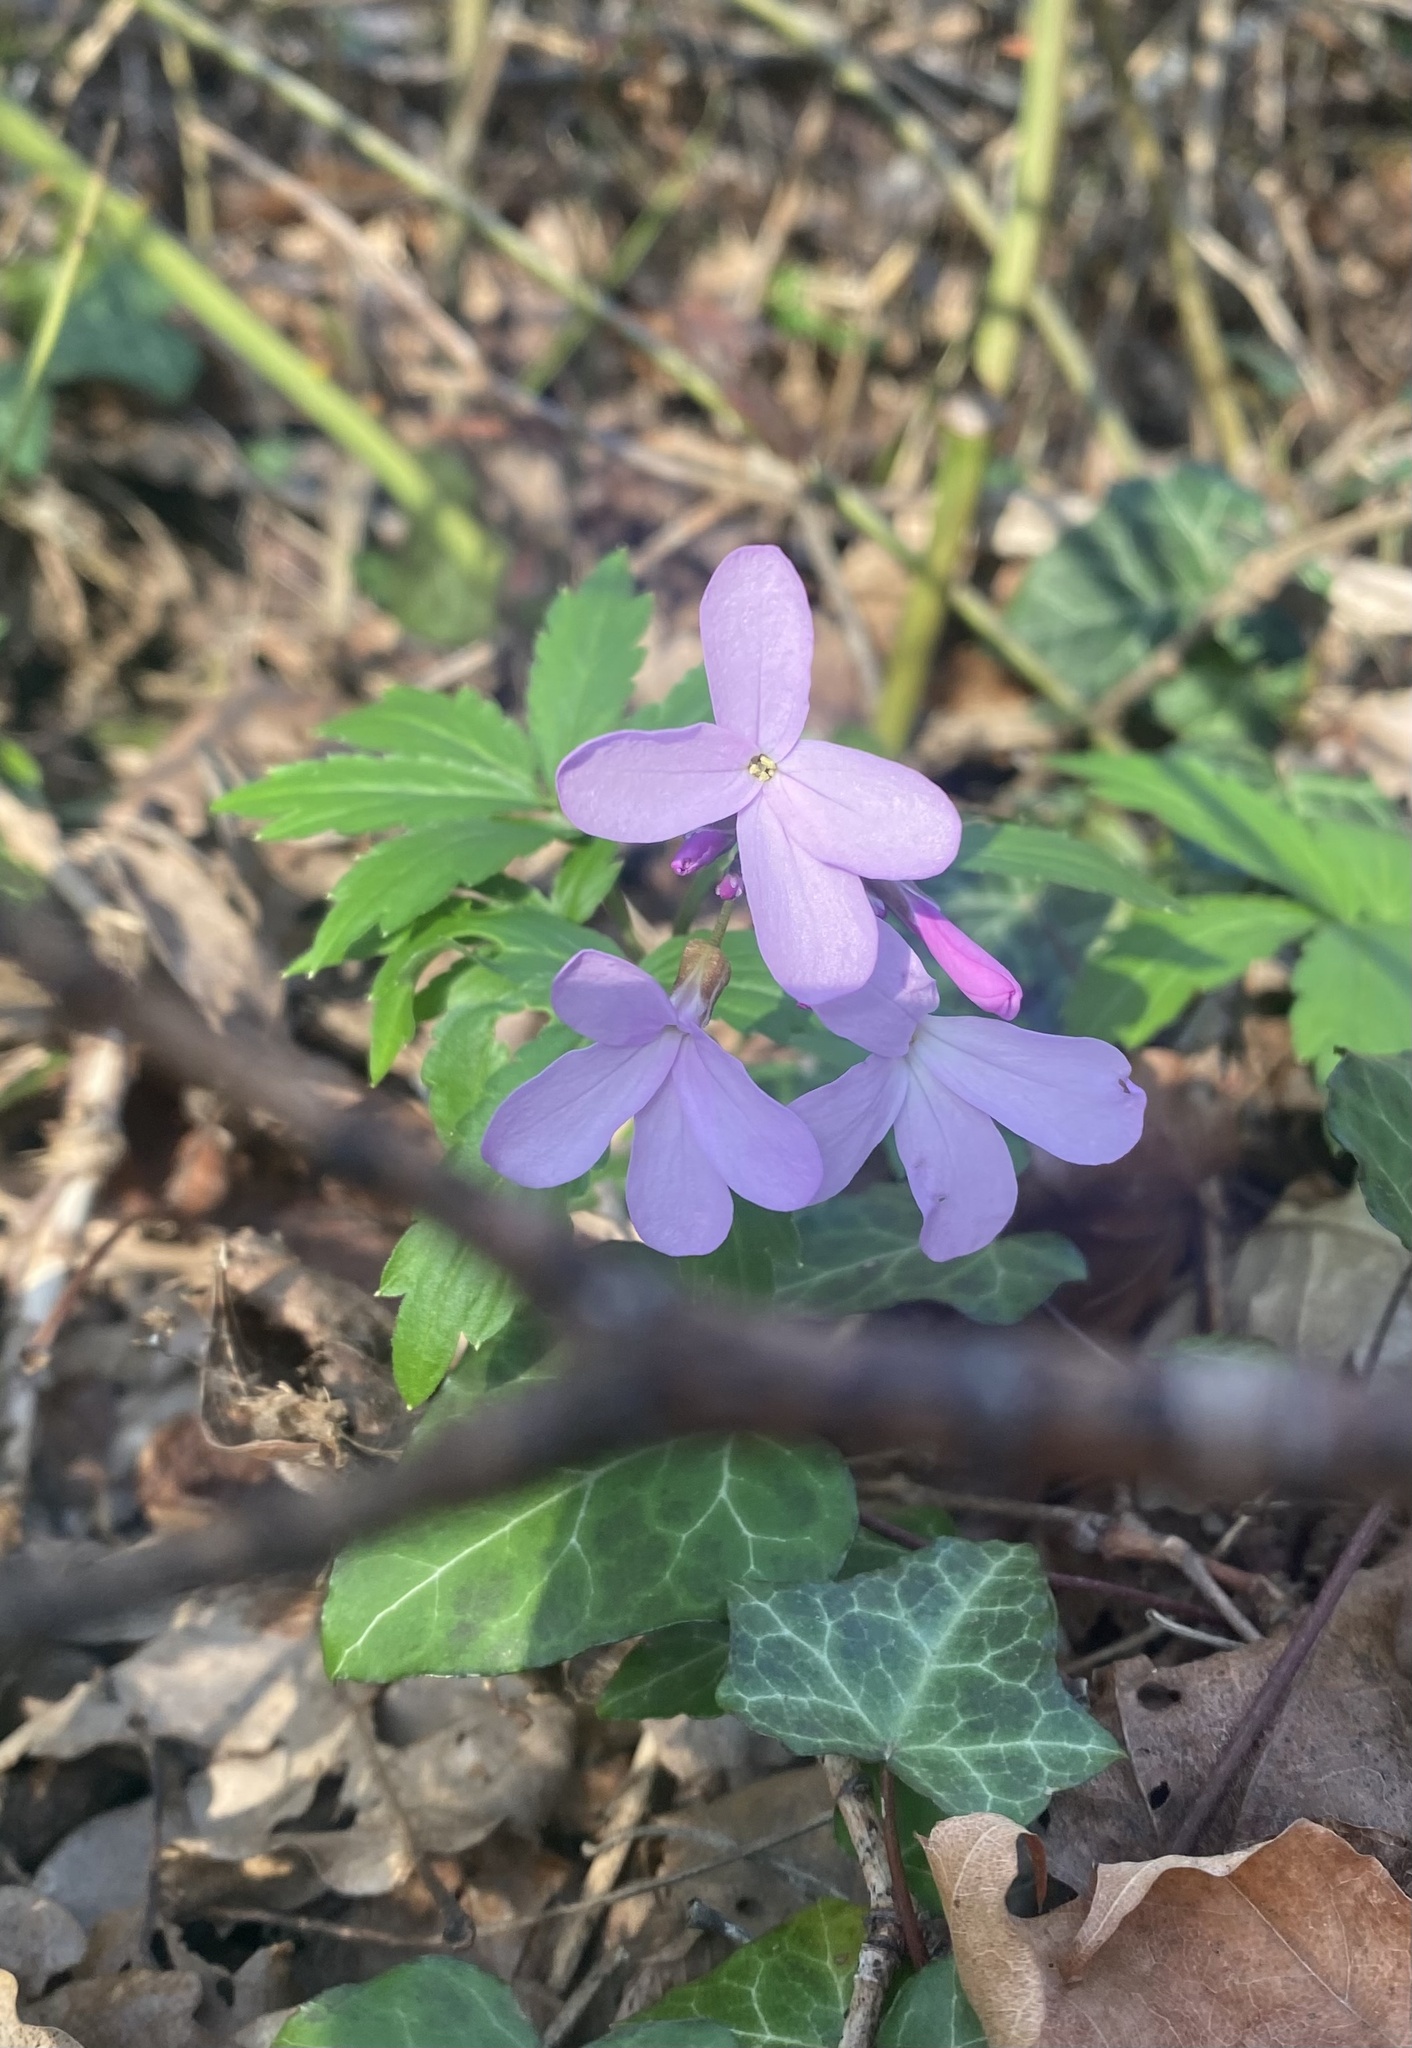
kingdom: Plantae
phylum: Tracheophyta
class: Magnoliopsida
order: Brassicales
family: Brassicaceae
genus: Cardamine
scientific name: Cardamine quinquefolia
